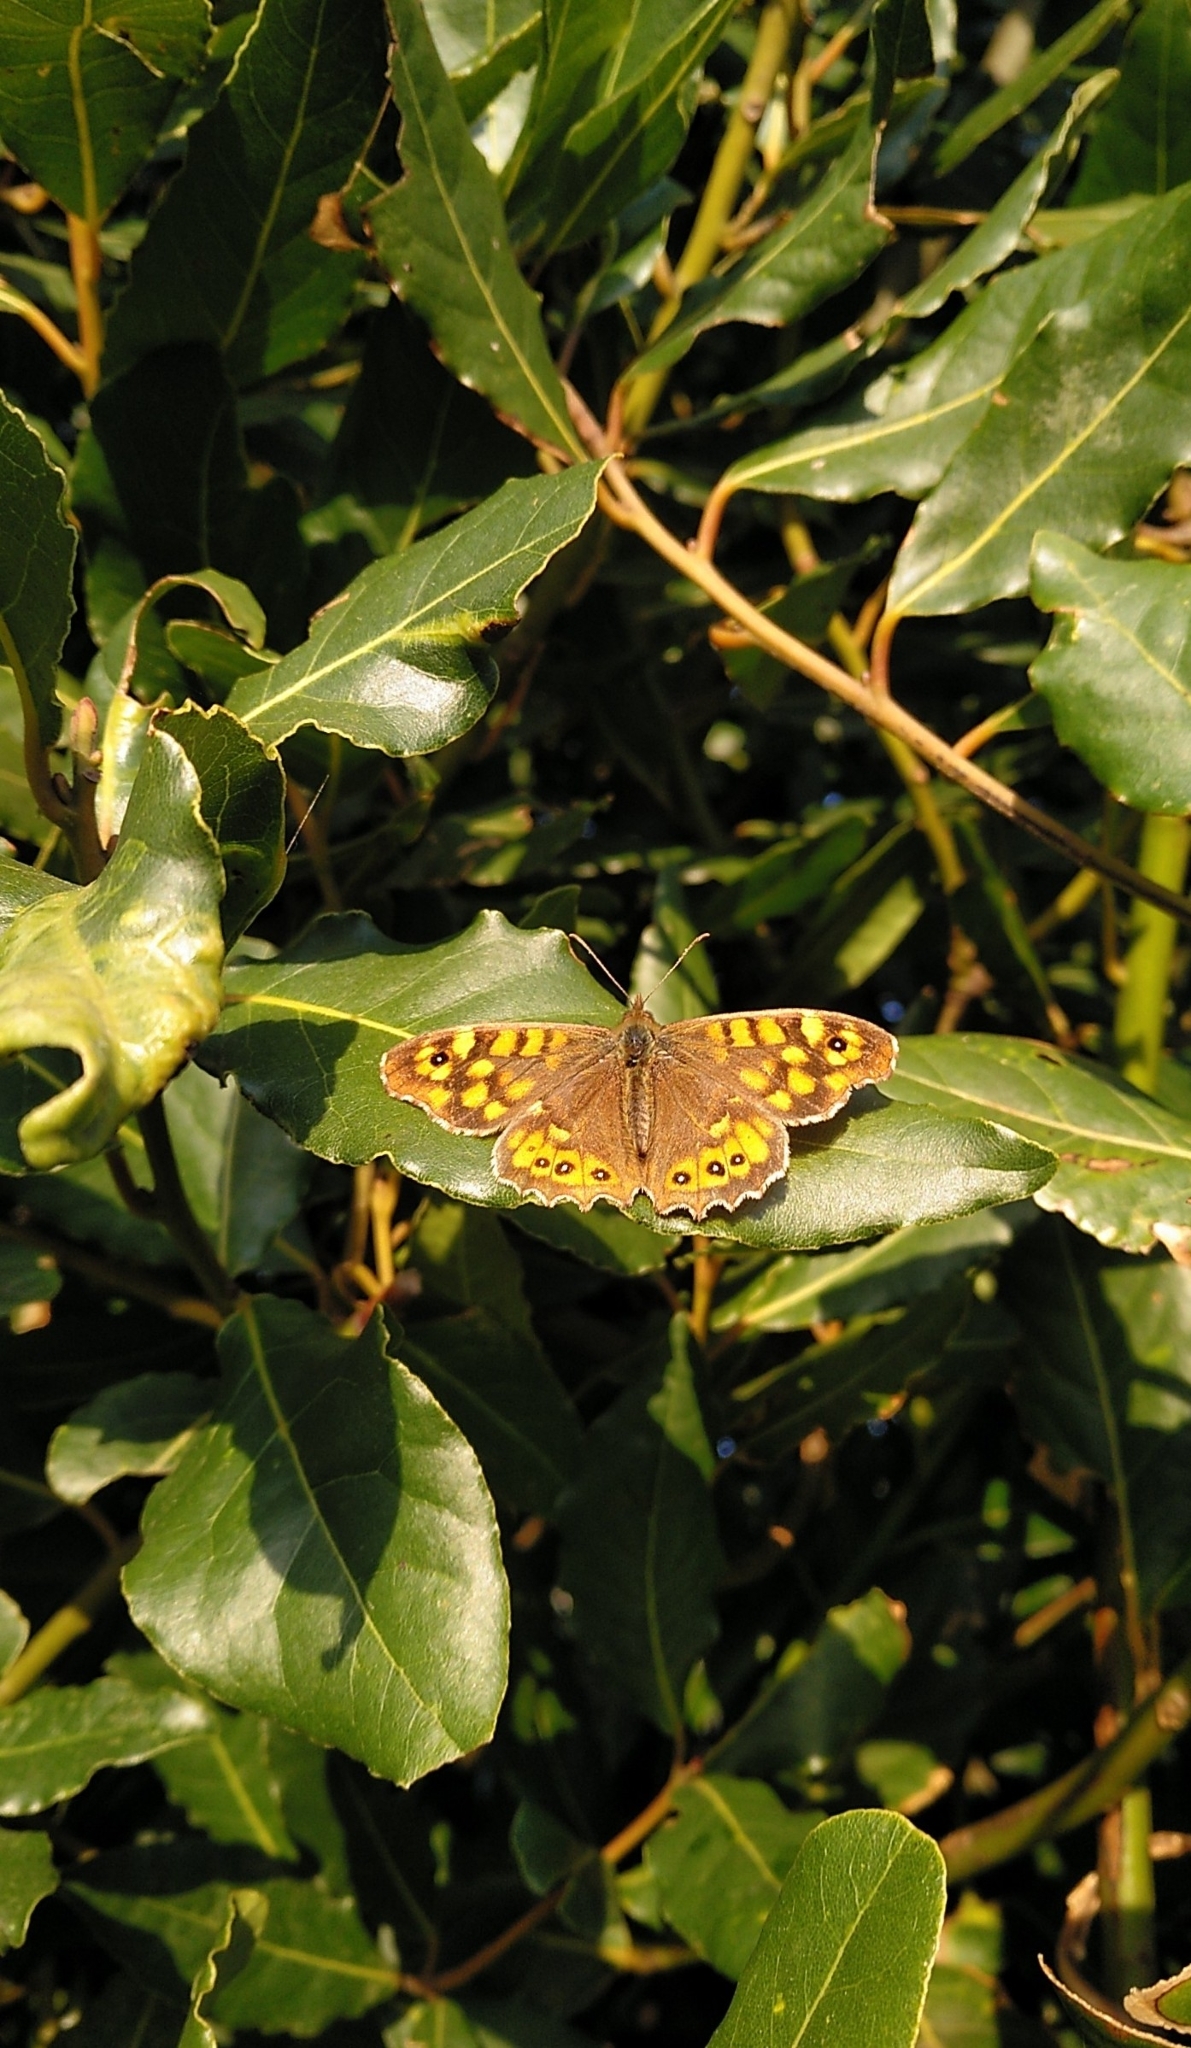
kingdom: Animalia
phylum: Arthropoda
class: Insecta
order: Lepidoptera
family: Nymphalidae
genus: Pararge
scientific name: Pararge aegeria
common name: Speckled wood
